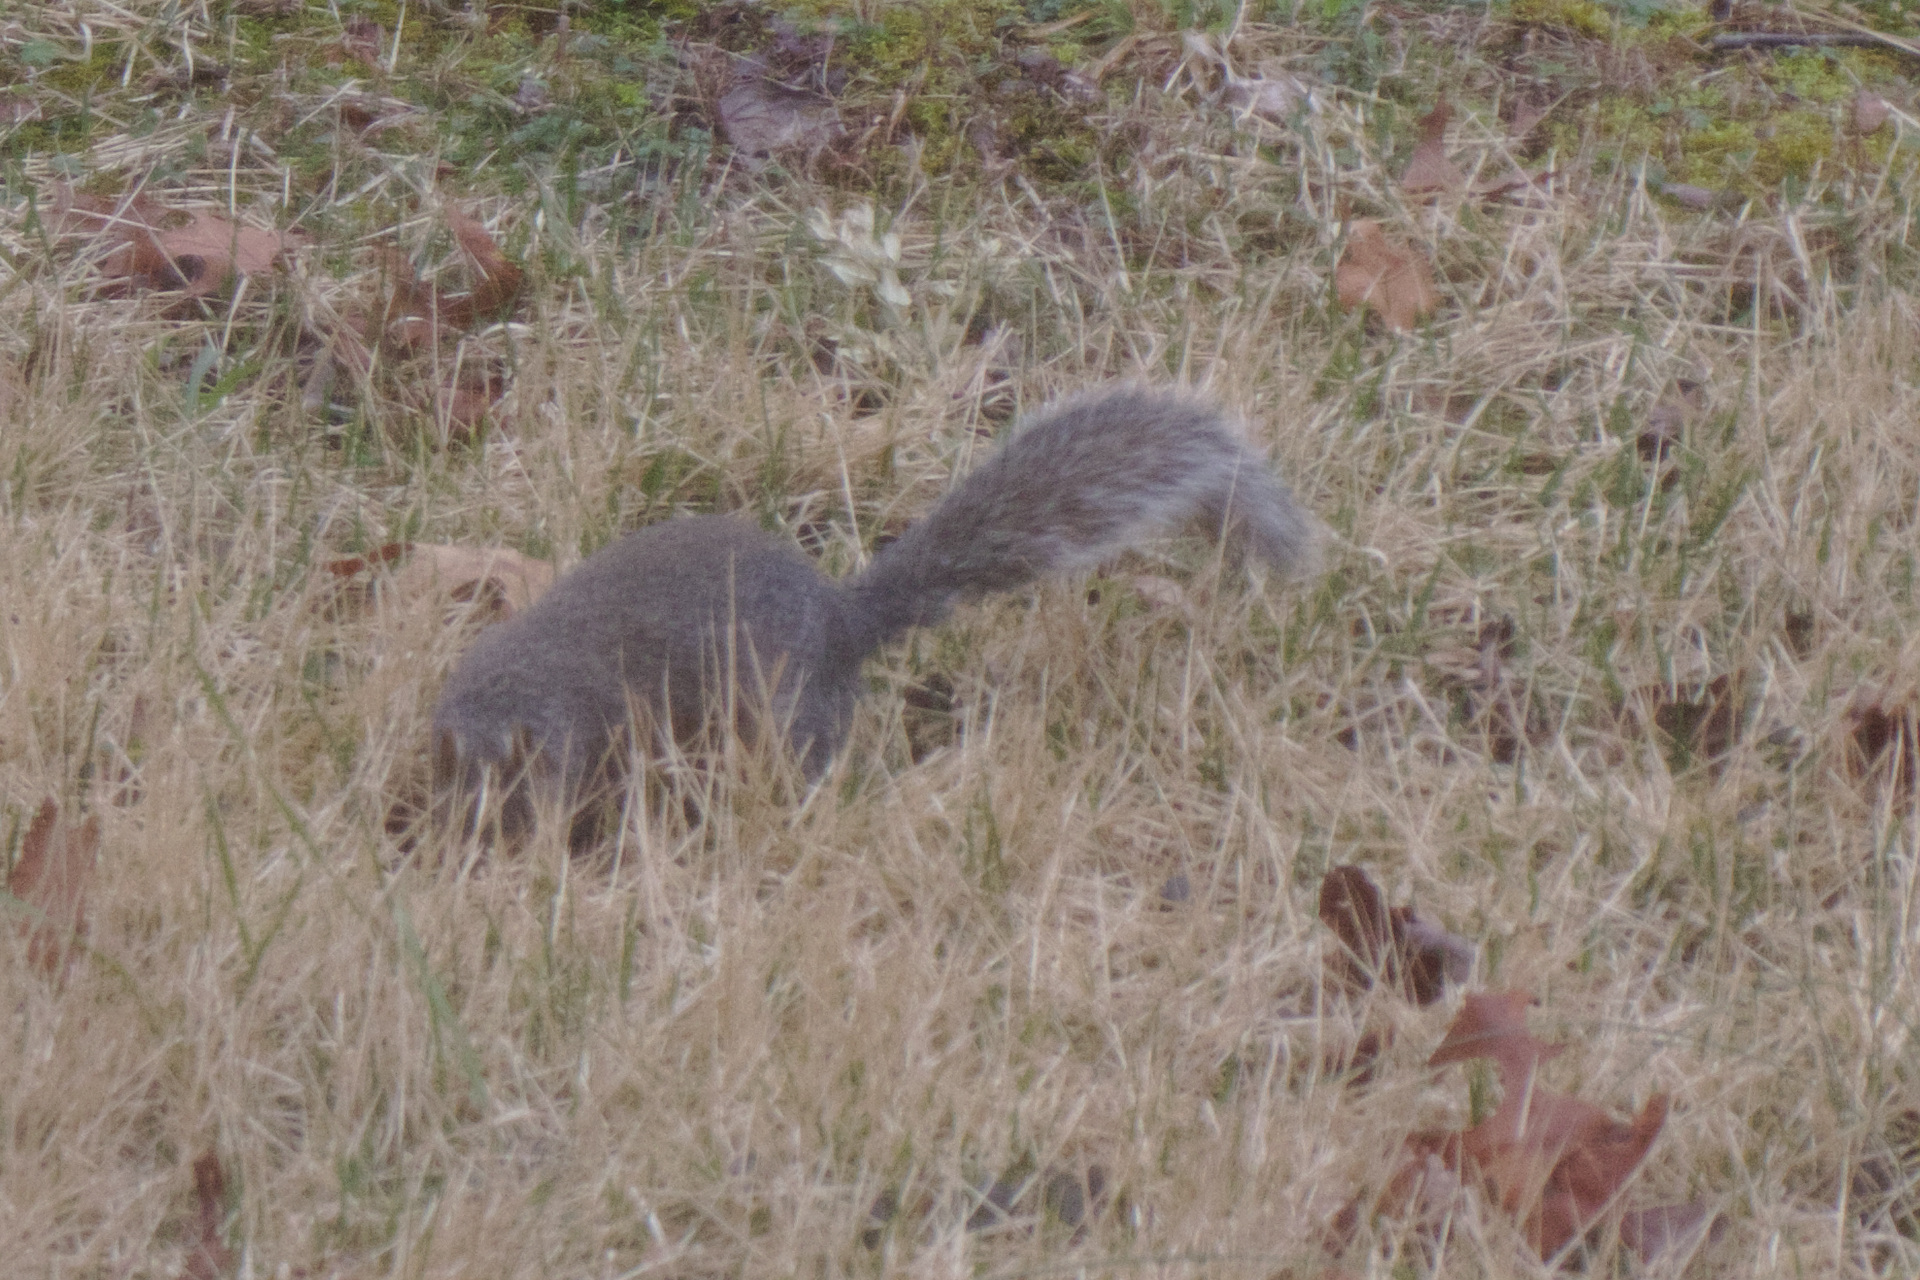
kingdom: Animalia
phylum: Chordata
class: Mammalia
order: Rodentia
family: Sciuridae
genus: Sciurus
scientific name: Sciurus carolinensis
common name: Eastern gray squirrel
